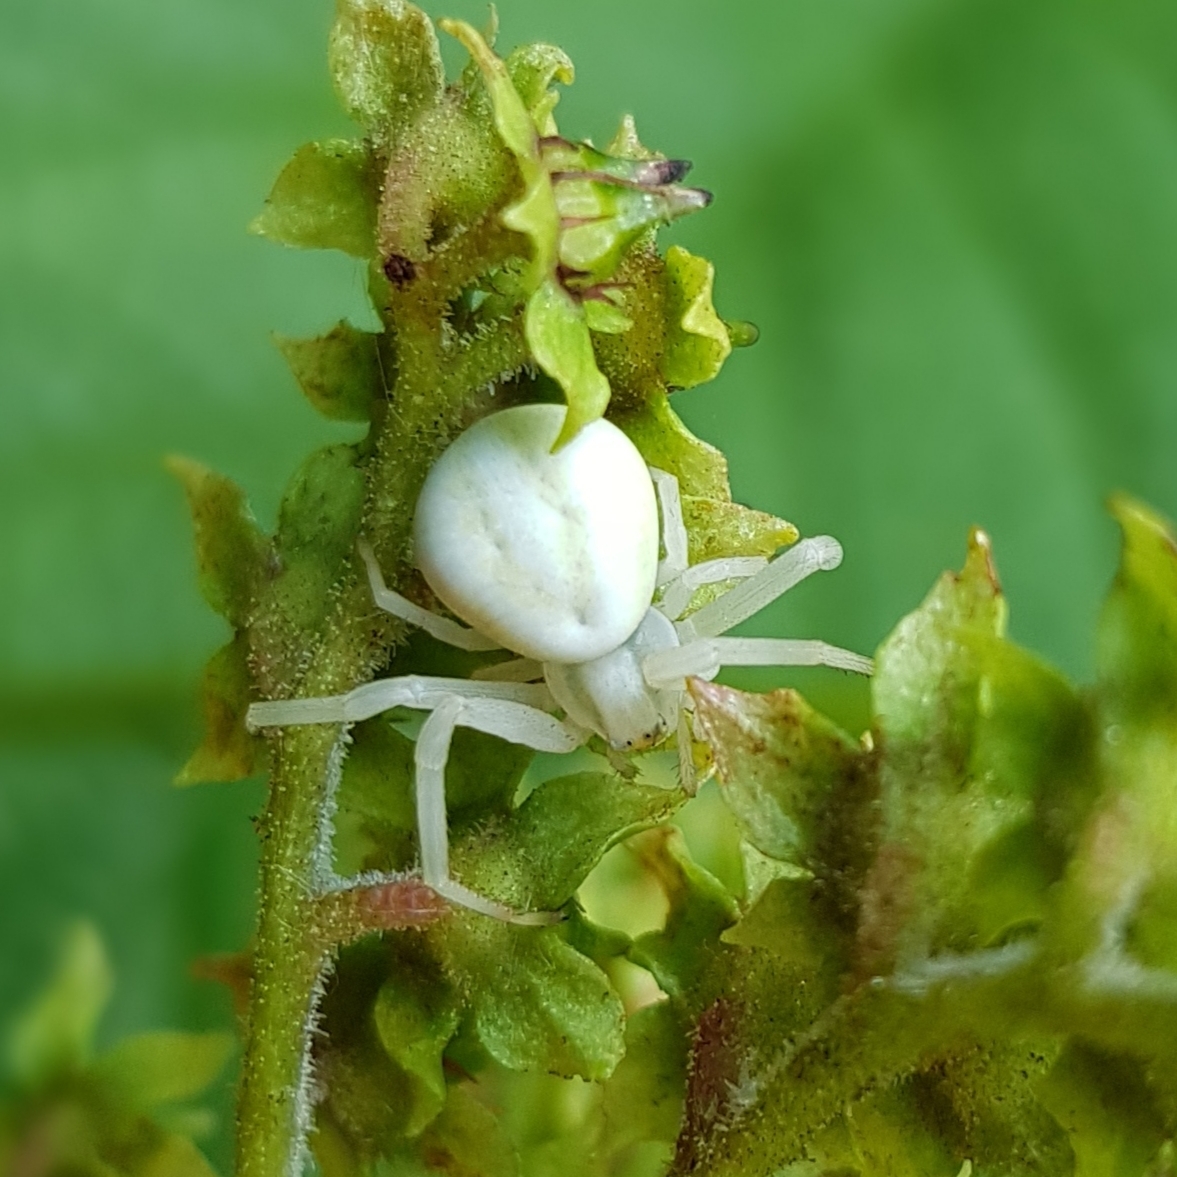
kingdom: Animalia
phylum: Arthropoda
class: Arachnida
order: Araneae
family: Thomisidae
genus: Misumena
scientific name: Misumena vatia
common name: Goldenrod crab spider
